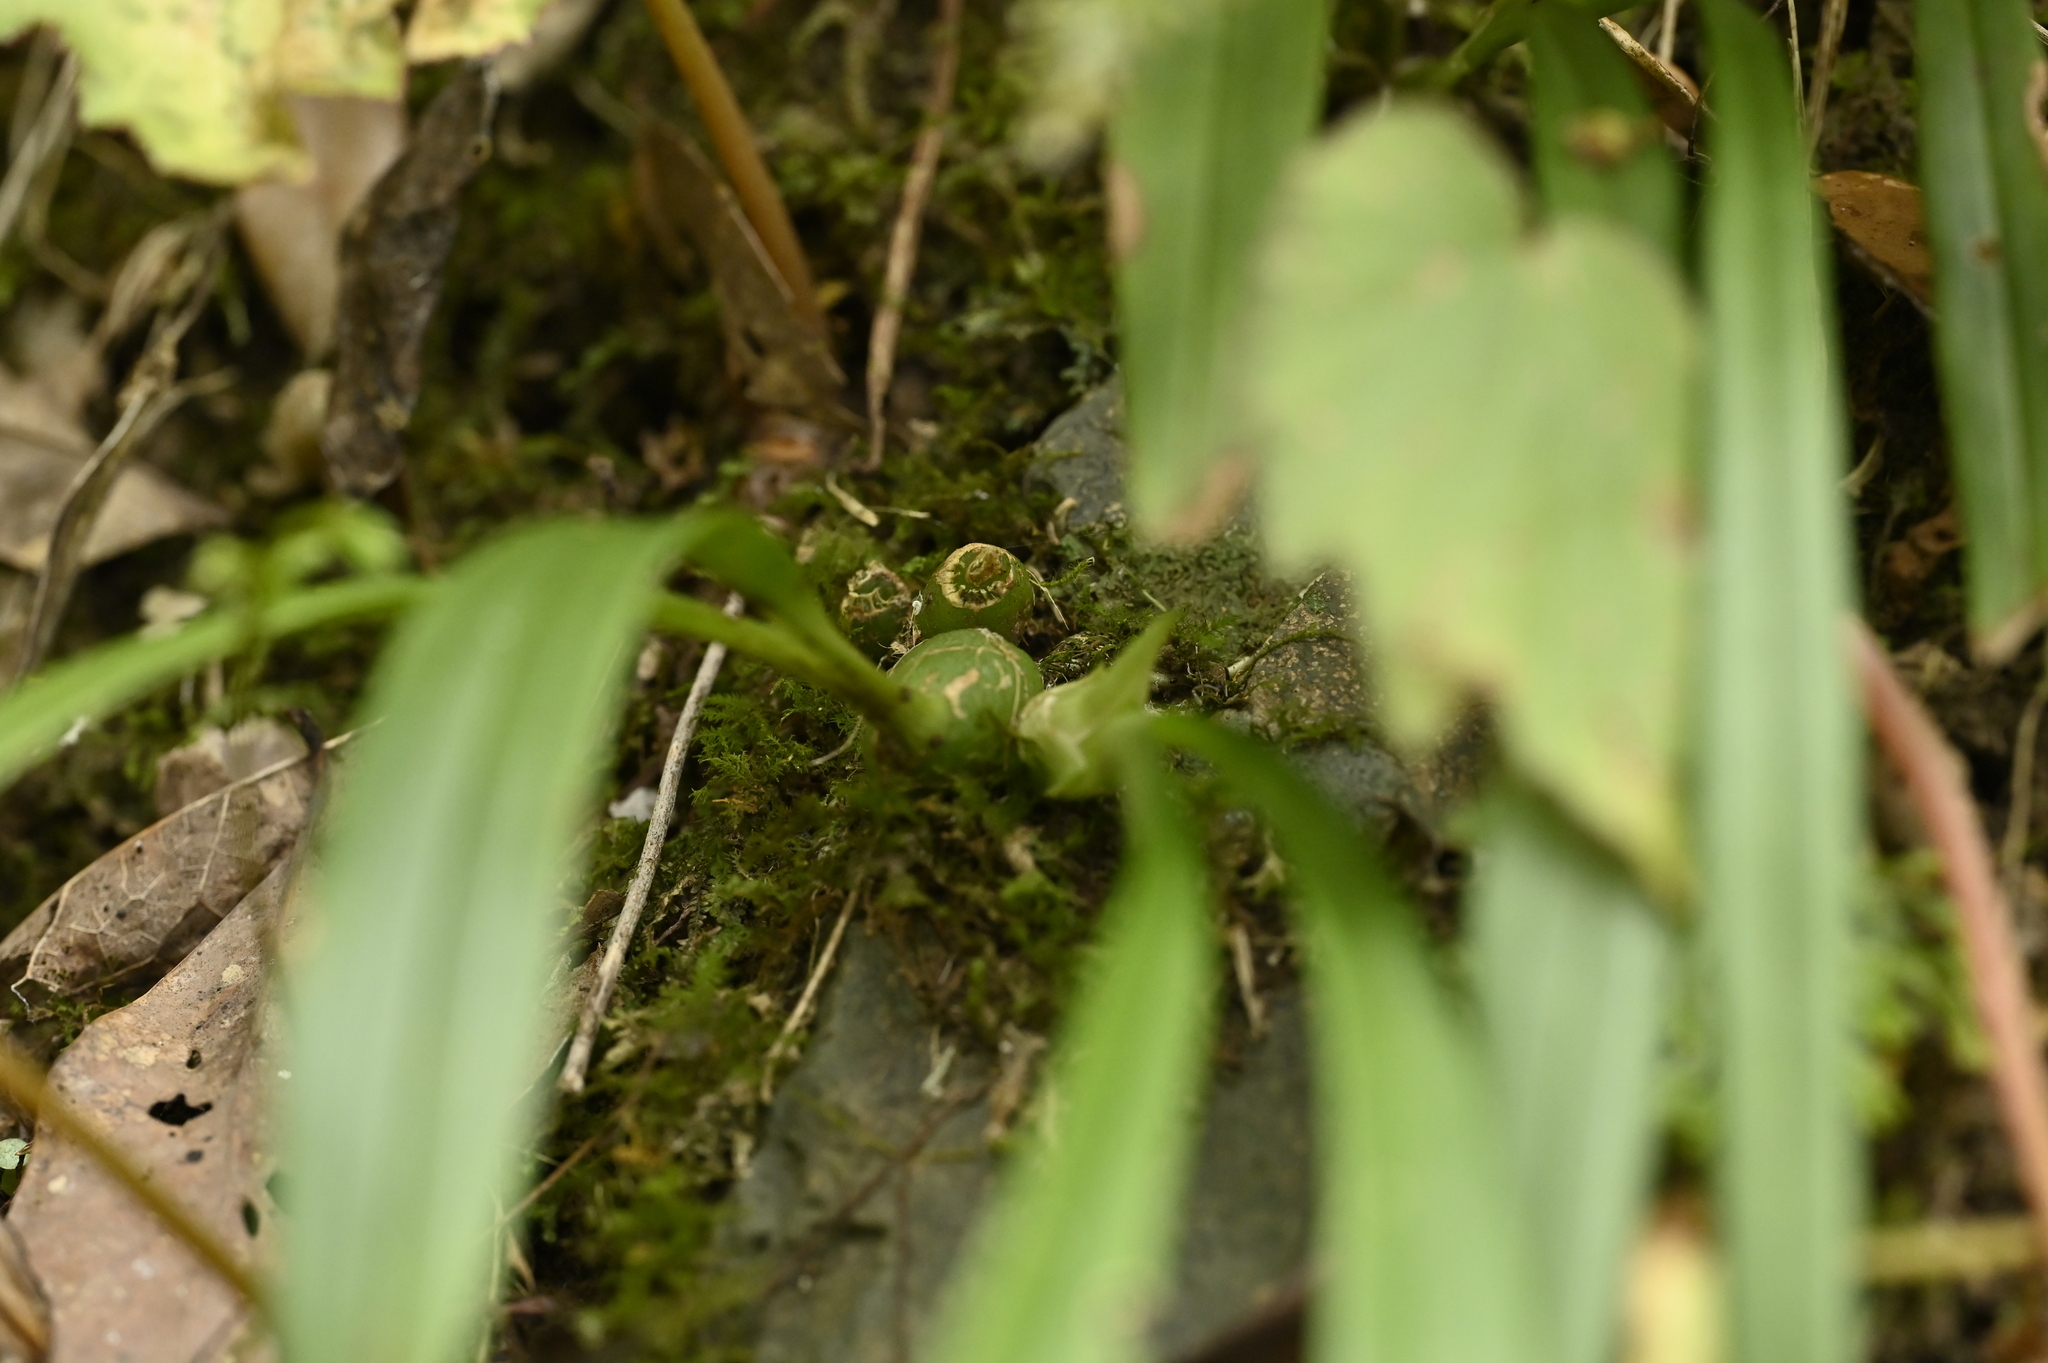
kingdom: Plantae
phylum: Tracheophyta
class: Liliopsida
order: Asparagales
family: Orchidaceae
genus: Liparis
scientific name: Liparis nakaharae
